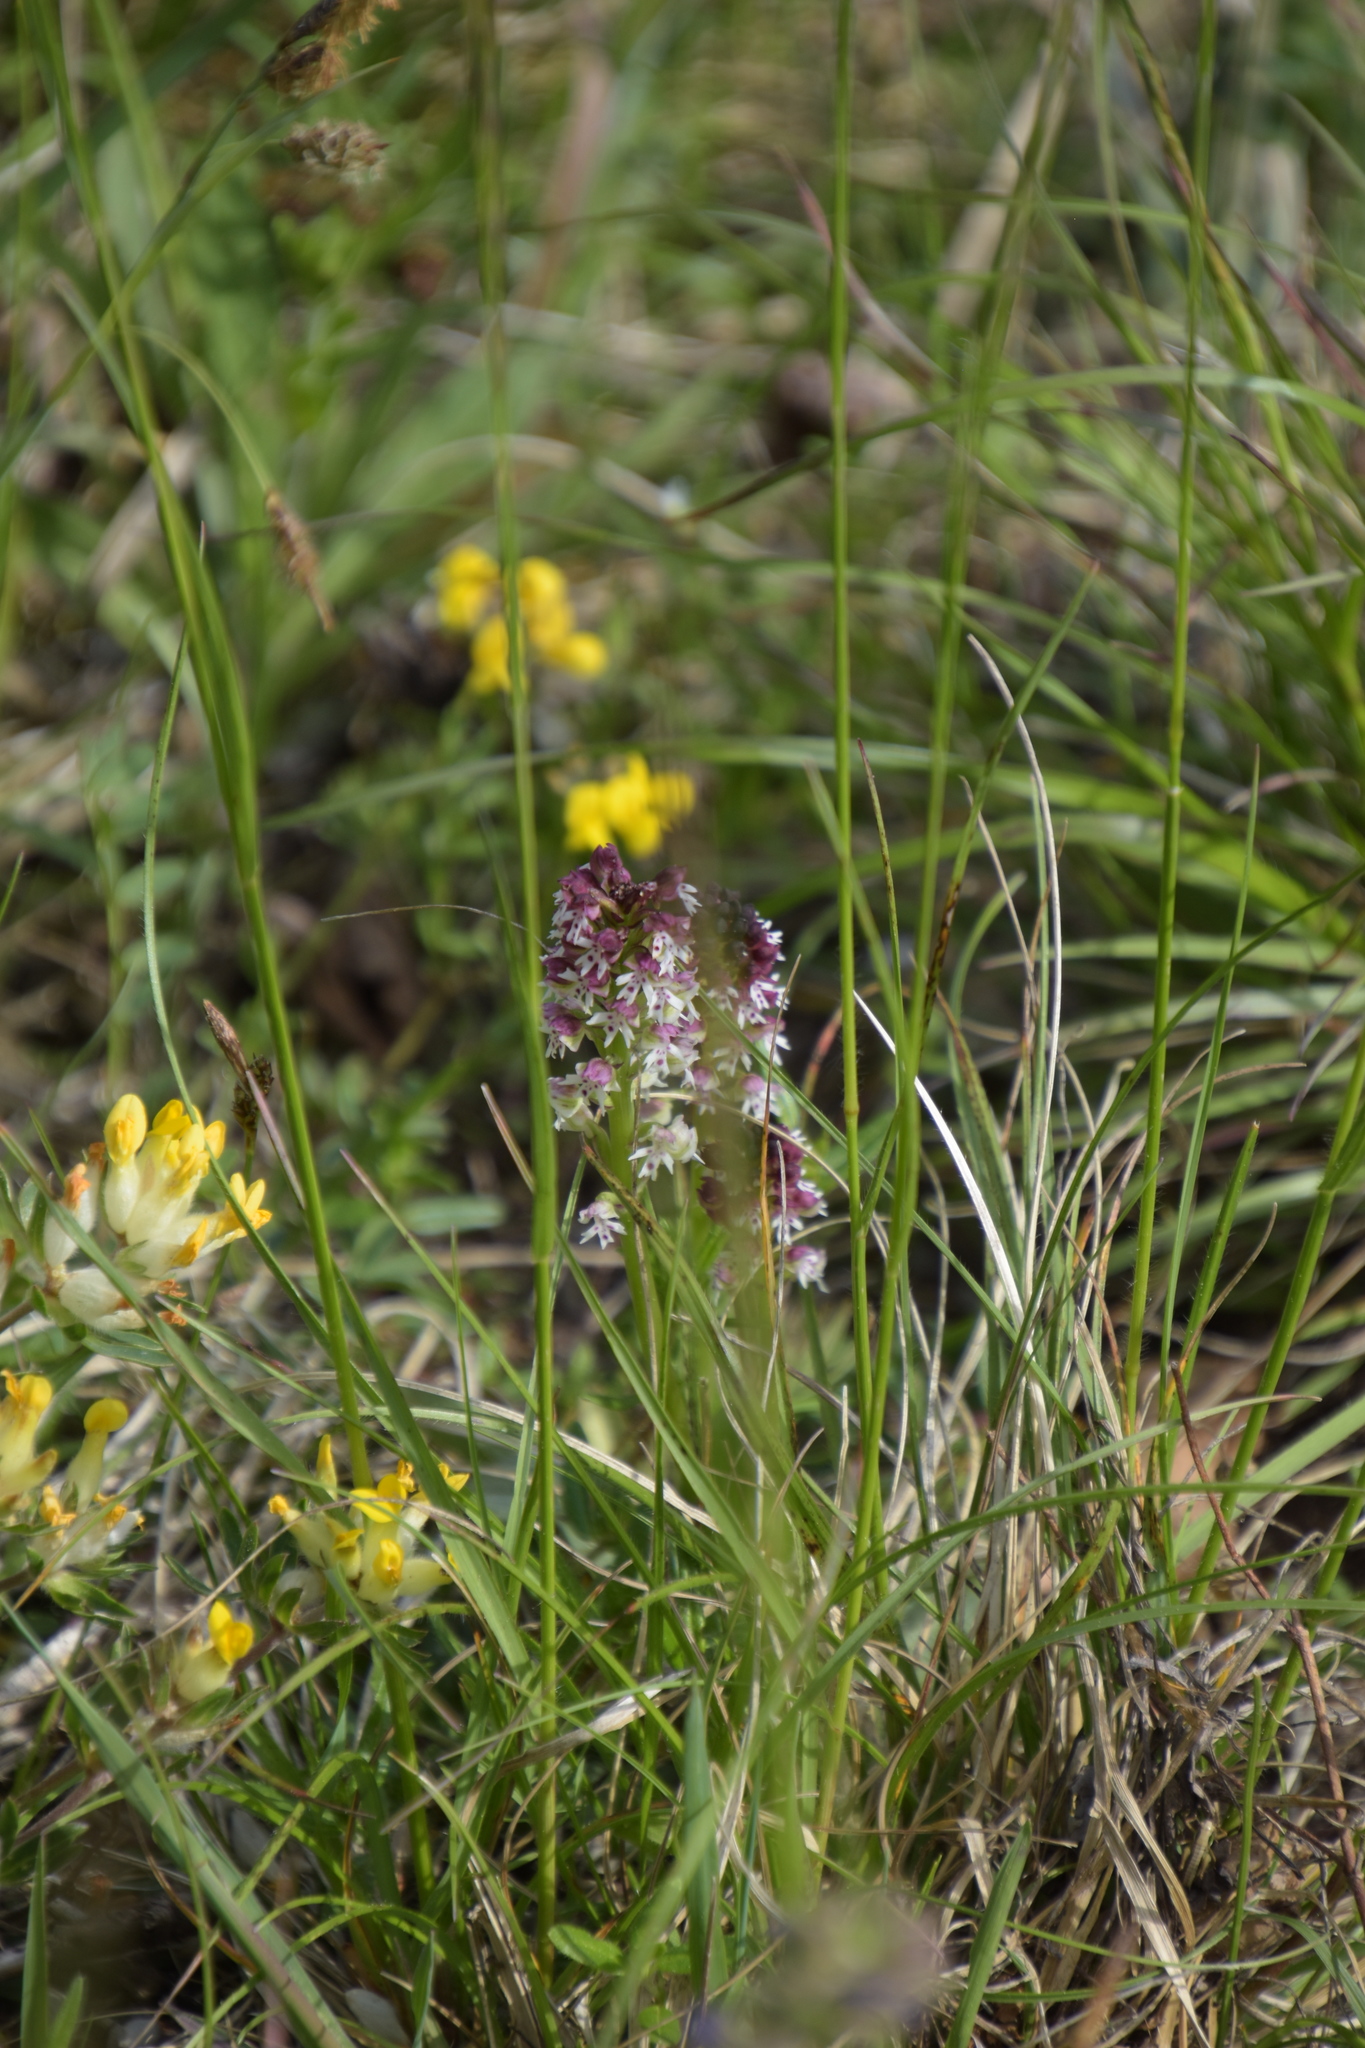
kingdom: Plantae
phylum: Tracheophyta
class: Liliopsida
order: Asparagales
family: Orchidaceae
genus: Neotinea
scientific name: Neotinea ustulata
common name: Burnt orchid
